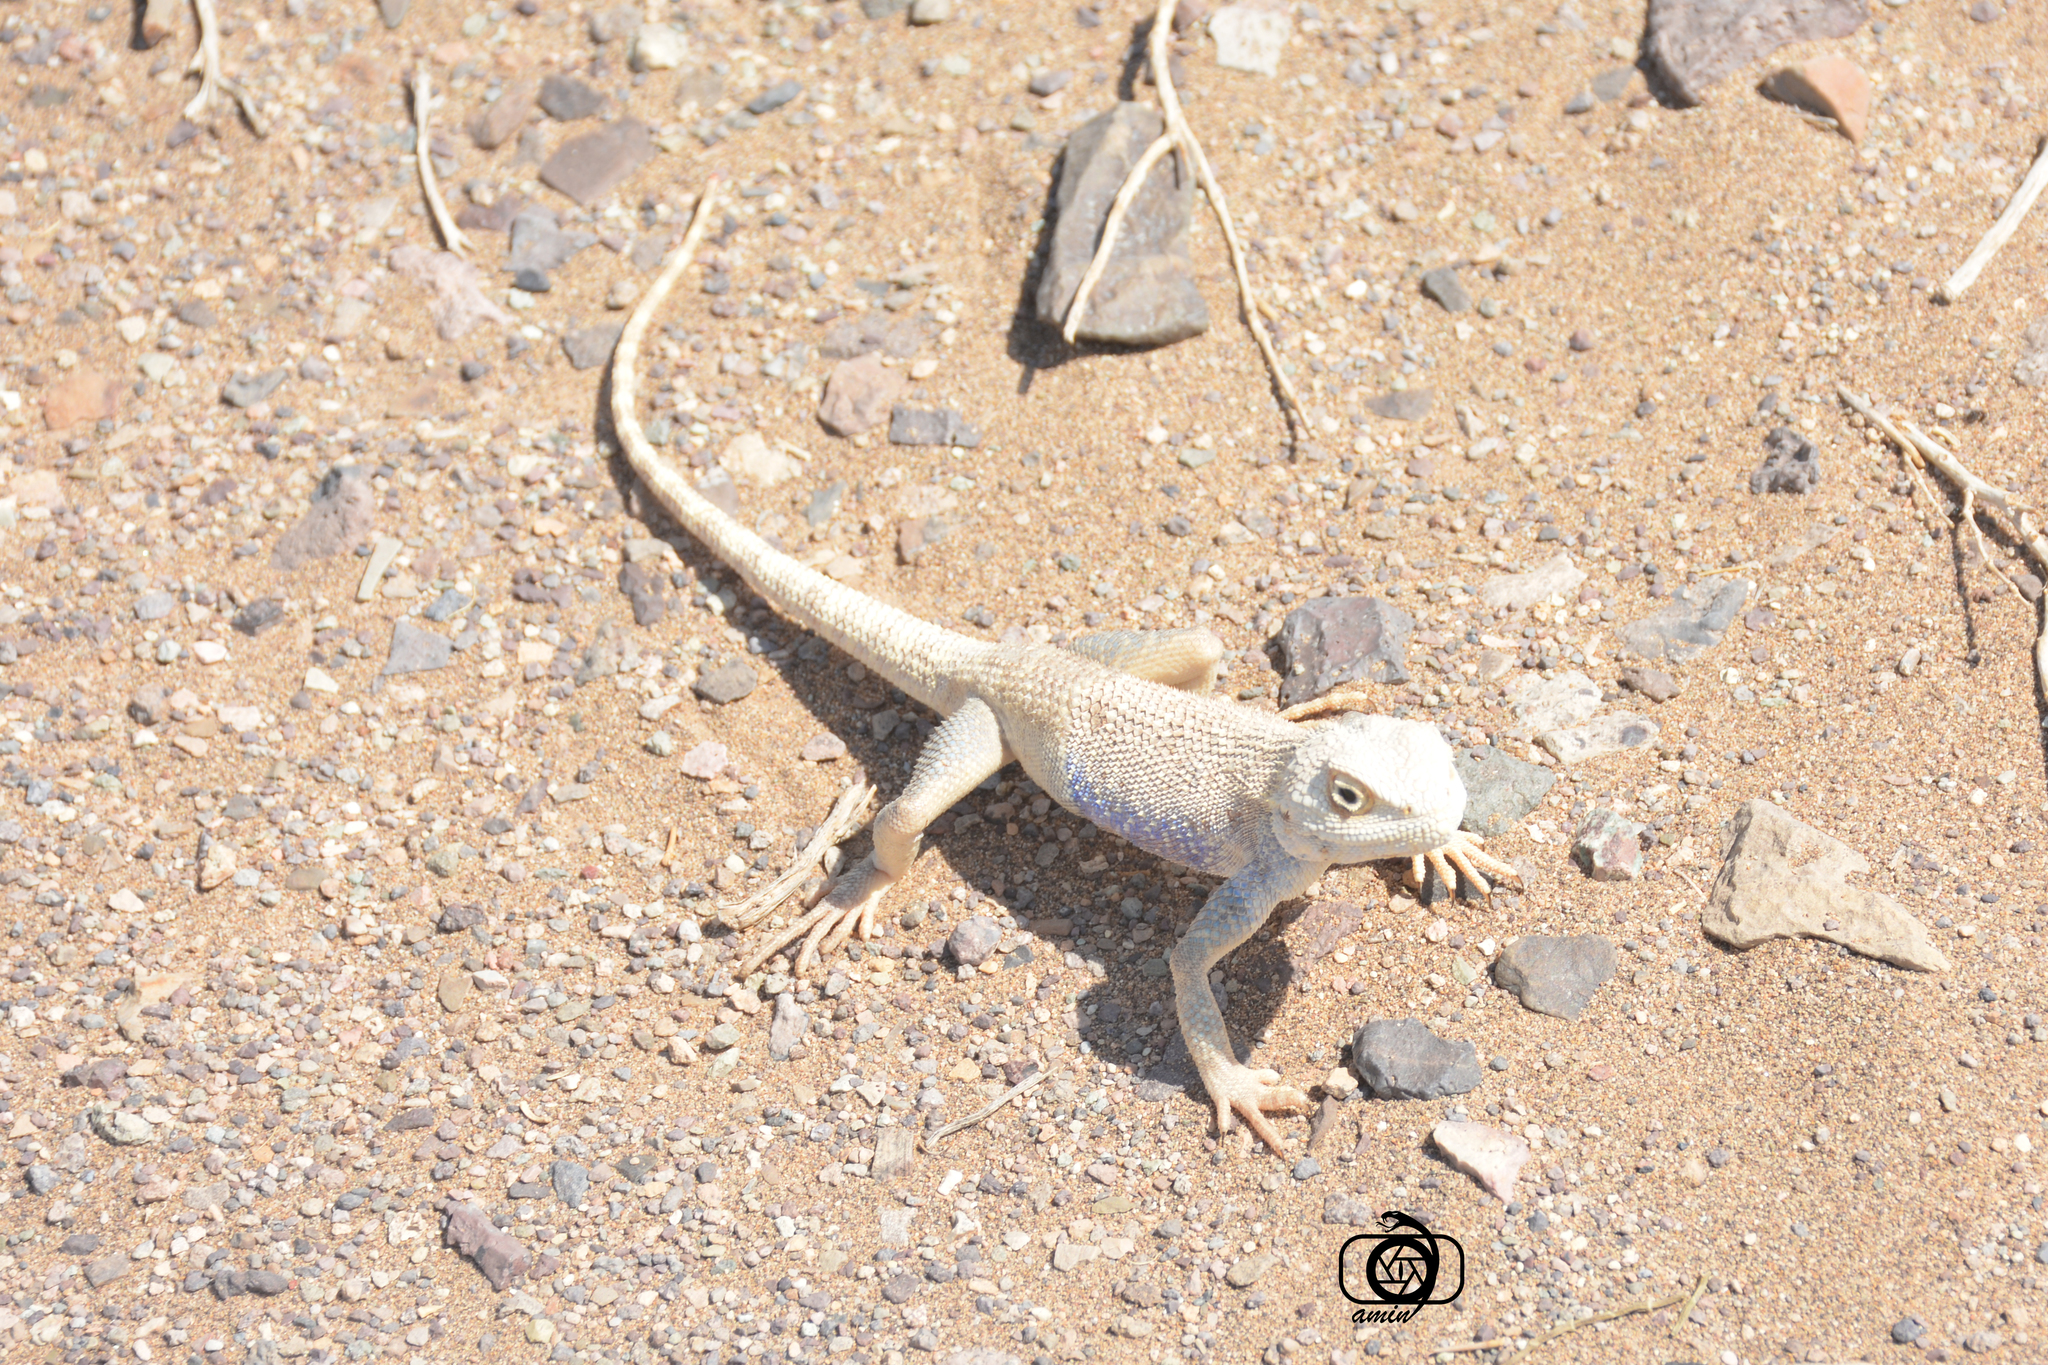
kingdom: Animalia
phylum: Chordata
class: Squamata
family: Agamidae
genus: Trapelus
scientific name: Trapelus agilis
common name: Brilliant ground agama
